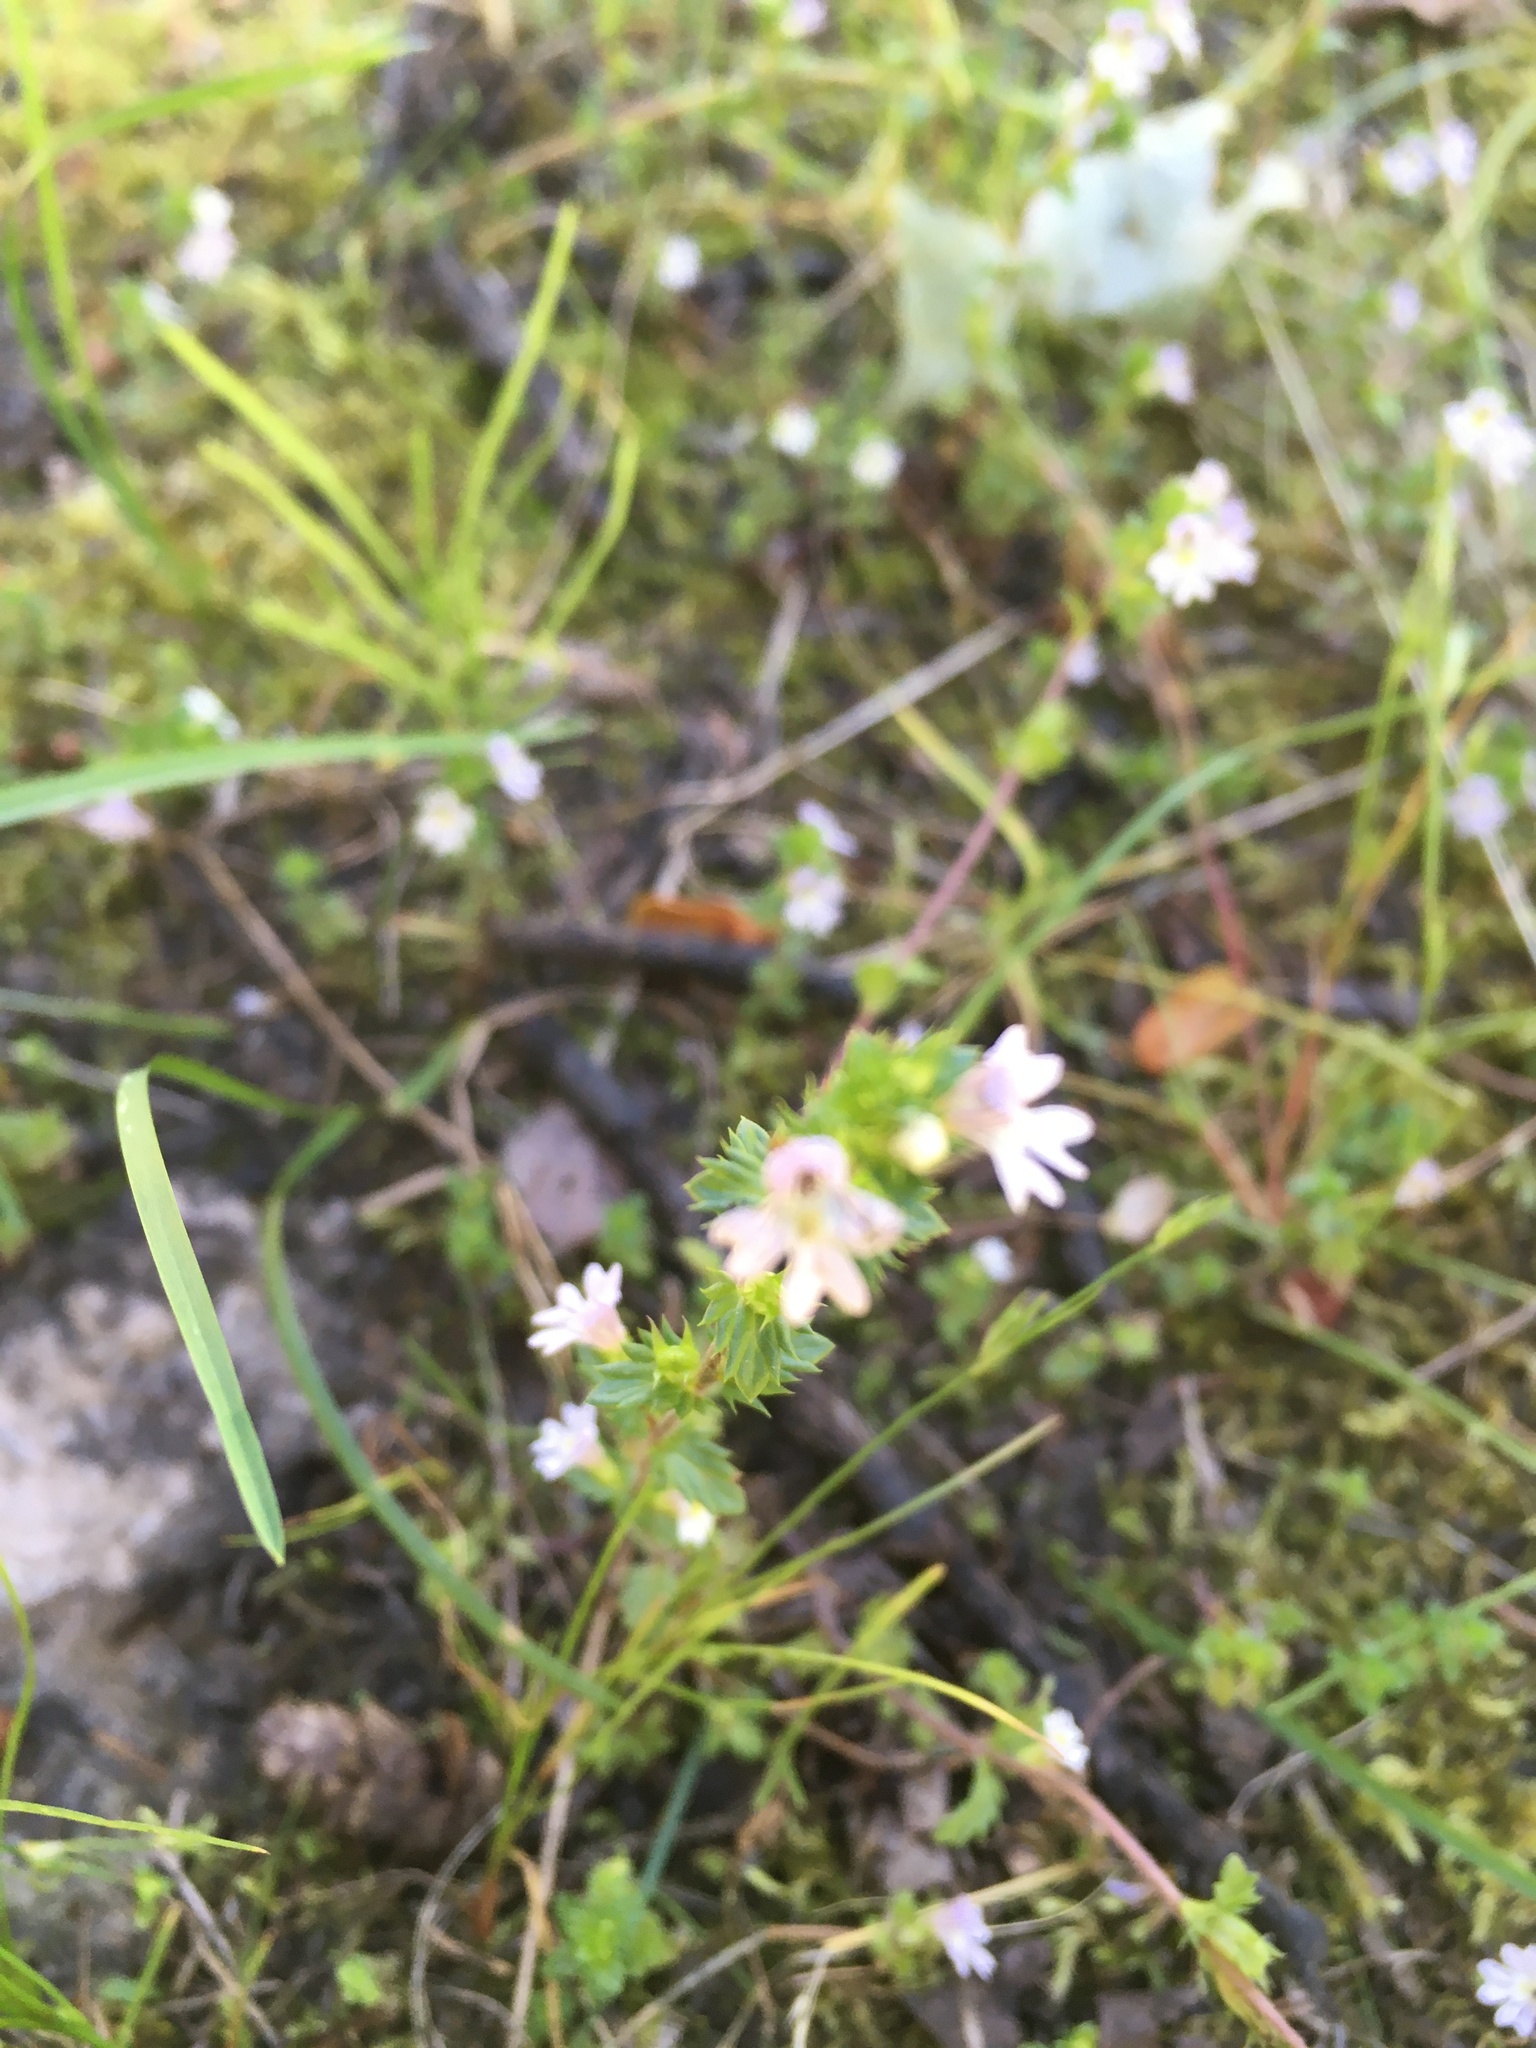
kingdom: Plantae
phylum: Tracheophyta
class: Magnoliopsida
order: Lamiales
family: Orobanchaceae
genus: Euphrasia
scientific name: Euphrasia nemorosa
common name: Common eyebright
